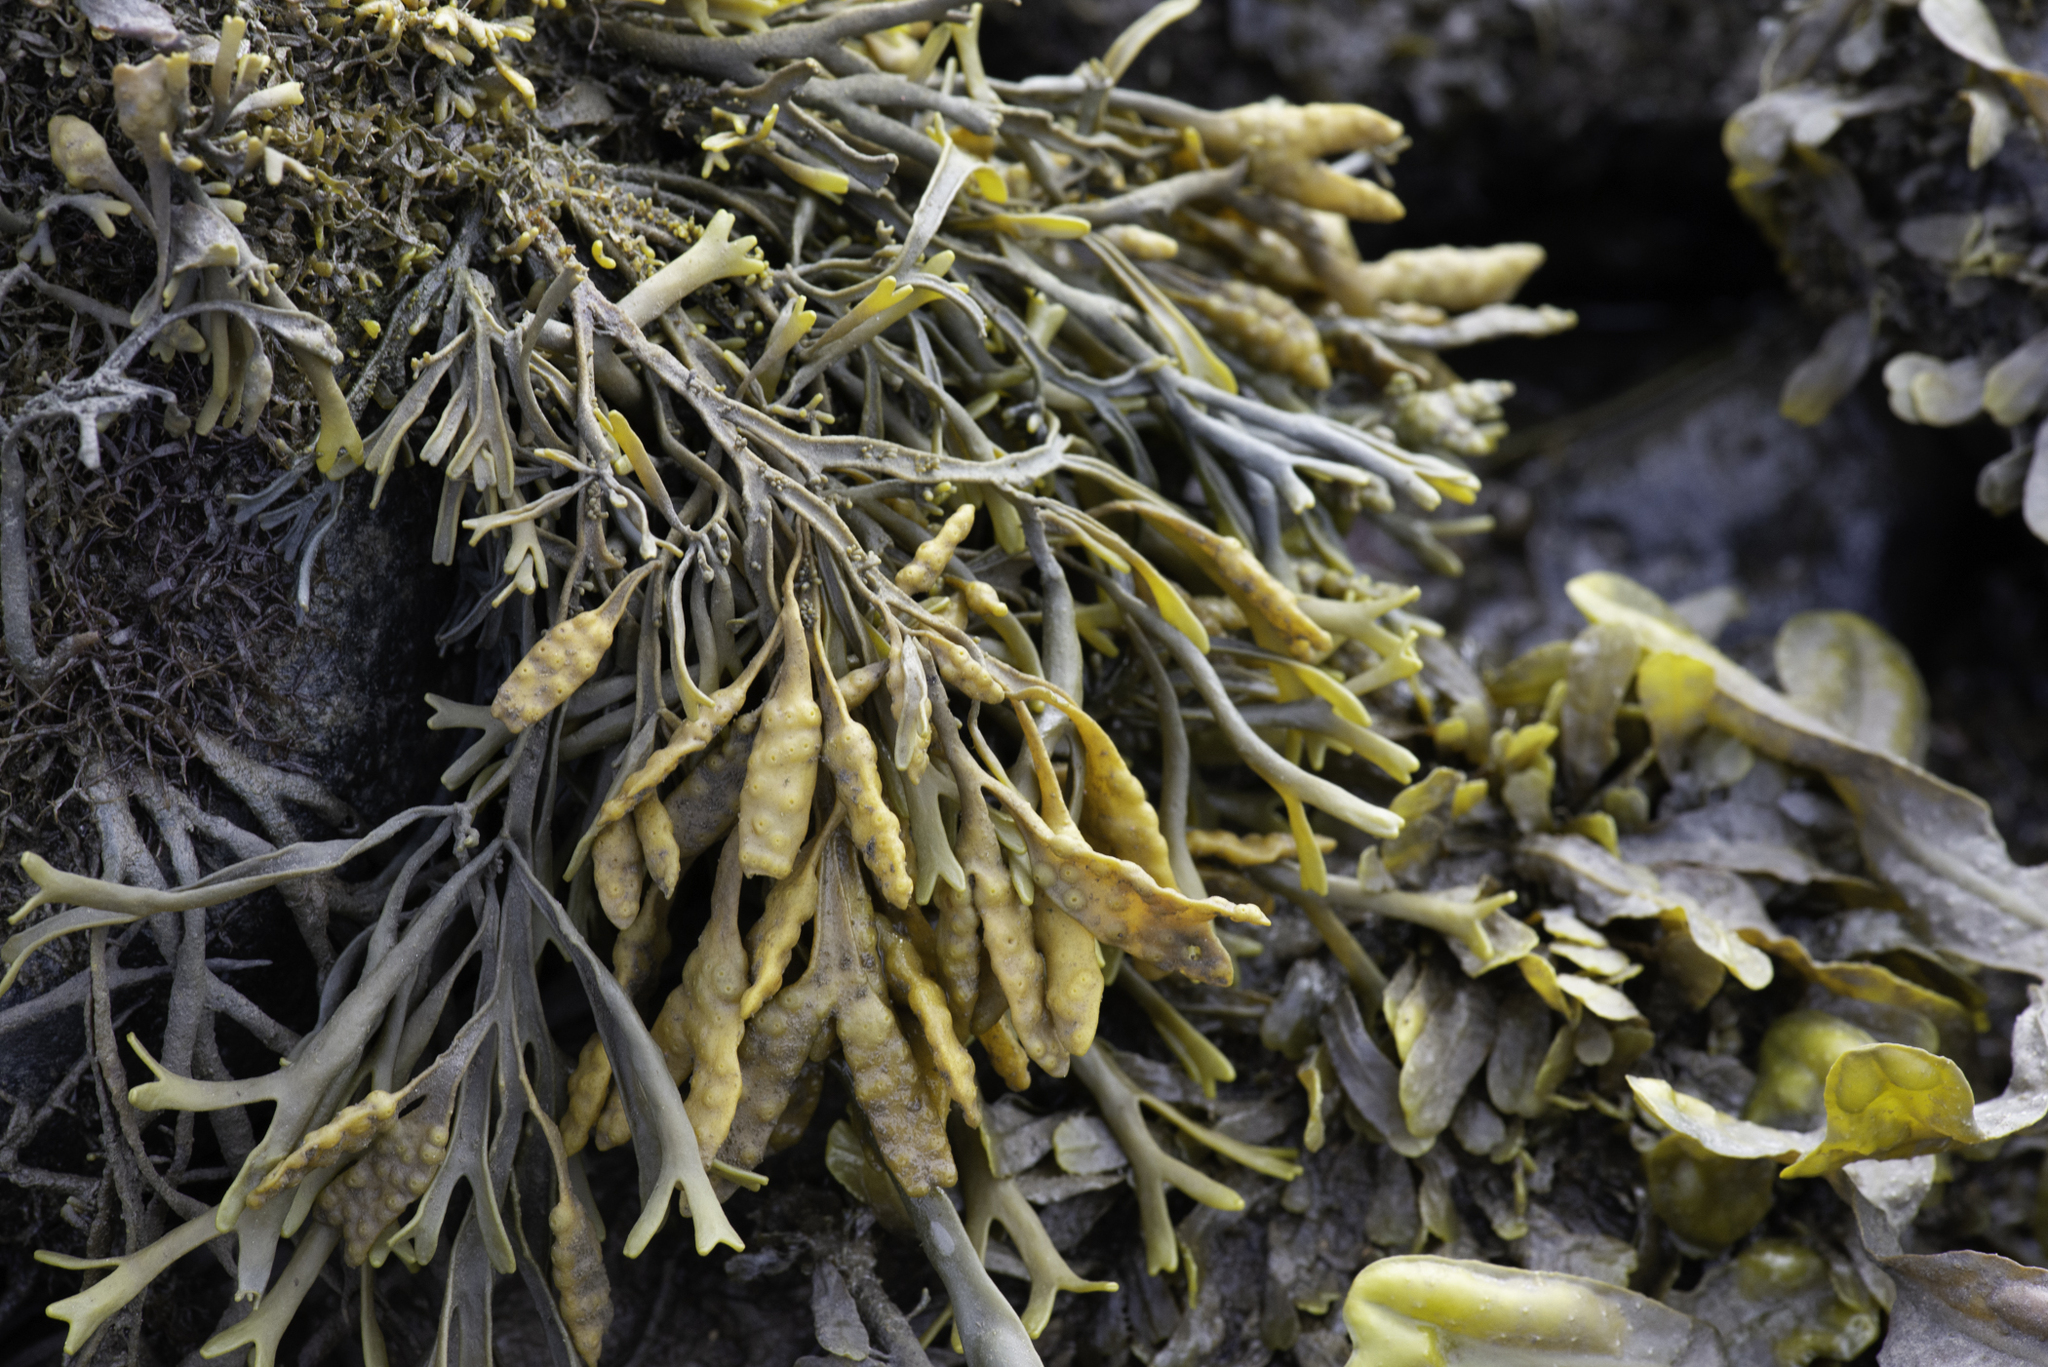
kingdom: Chromista
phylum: Ochrophyta
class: Phaeophyceae
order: Fucales
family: Fucaceae
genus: Pelvetia
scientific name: Pelvetia canaliculata
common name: Channelled wrack
